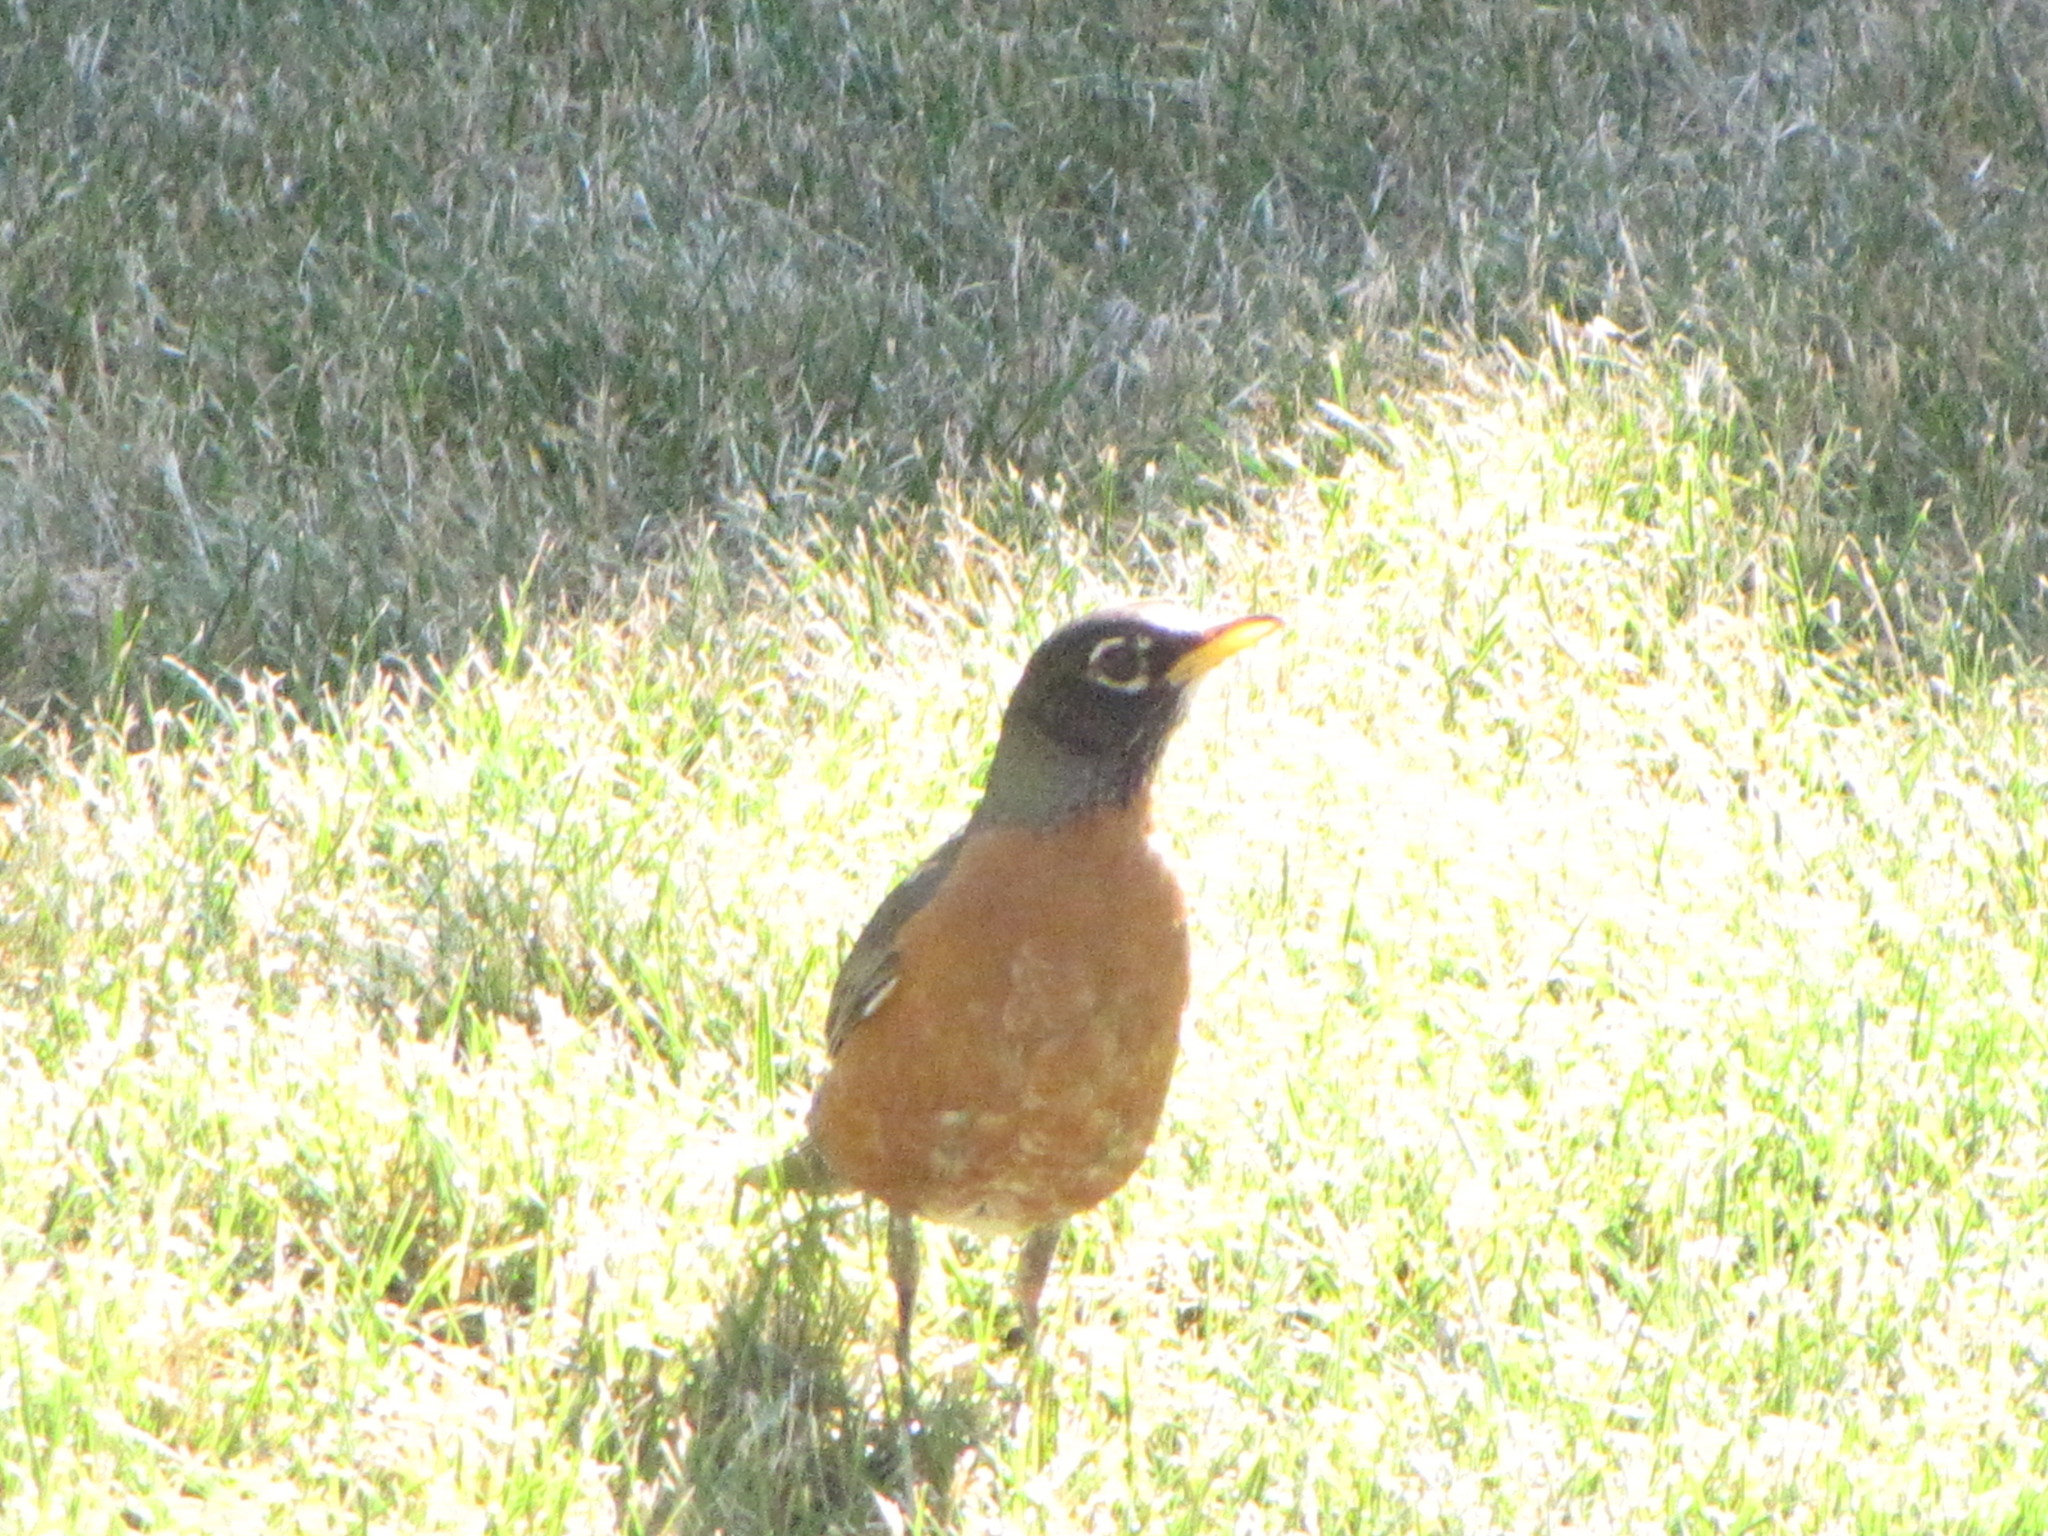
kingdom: Animalia
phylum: Chordata
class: Aves
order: Passeriformes
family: Turdidae
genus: Turdus
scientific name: Turdus migratorius
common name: American robin
